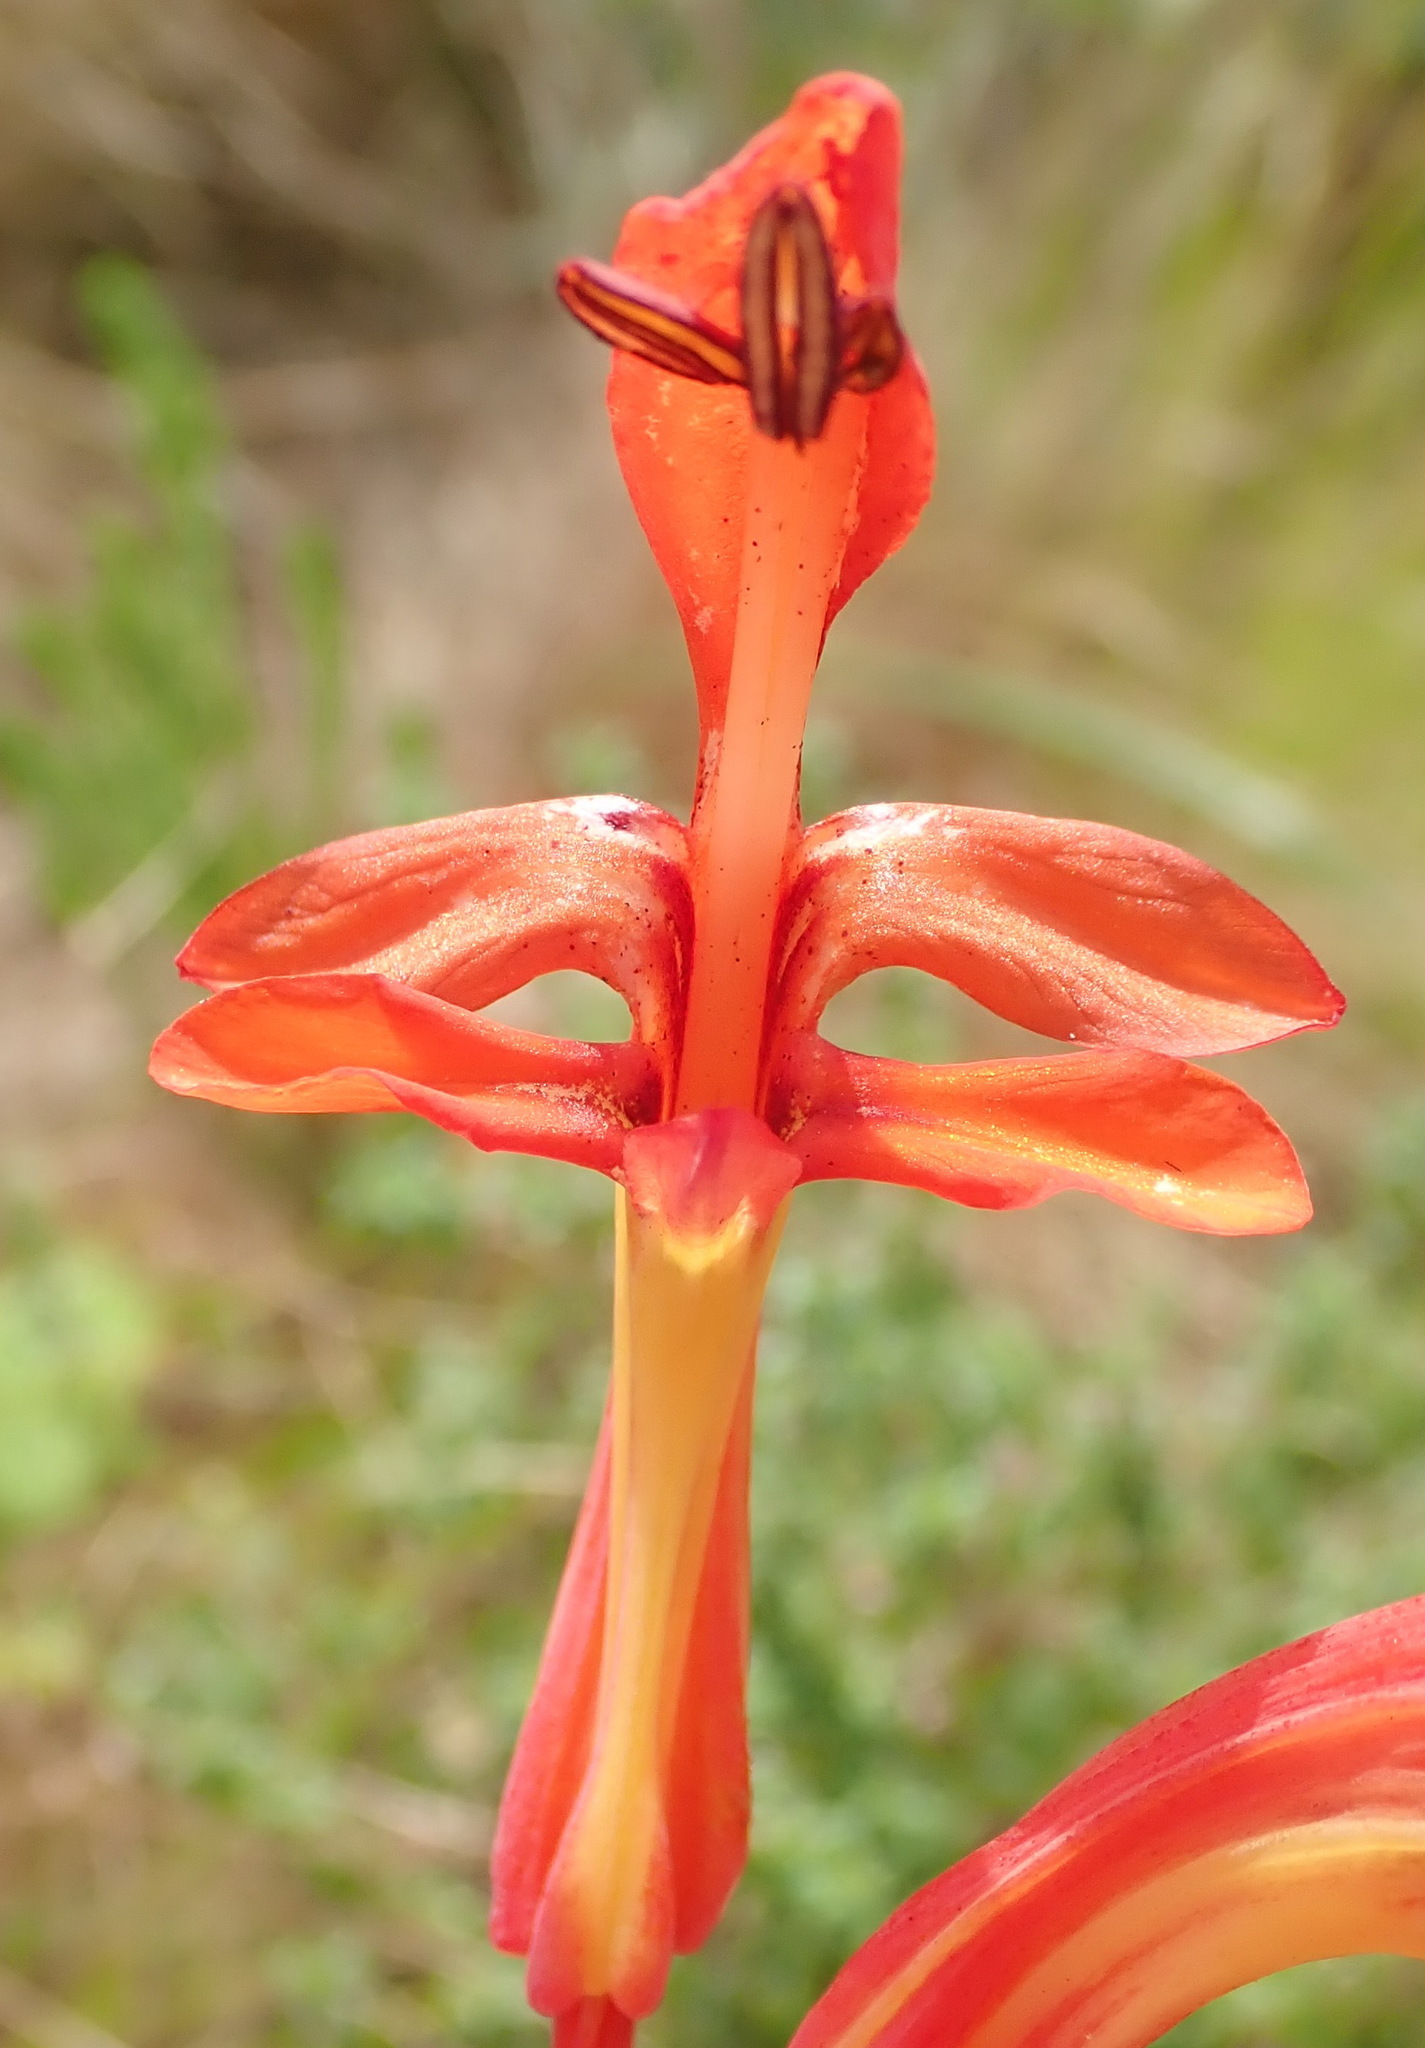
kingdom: Plantae
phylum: Tracheophyta
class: Liliopsida
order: Asparagales
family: Iridaceae
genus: Chasmanthe
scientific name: Chasmanthe aethiopica
